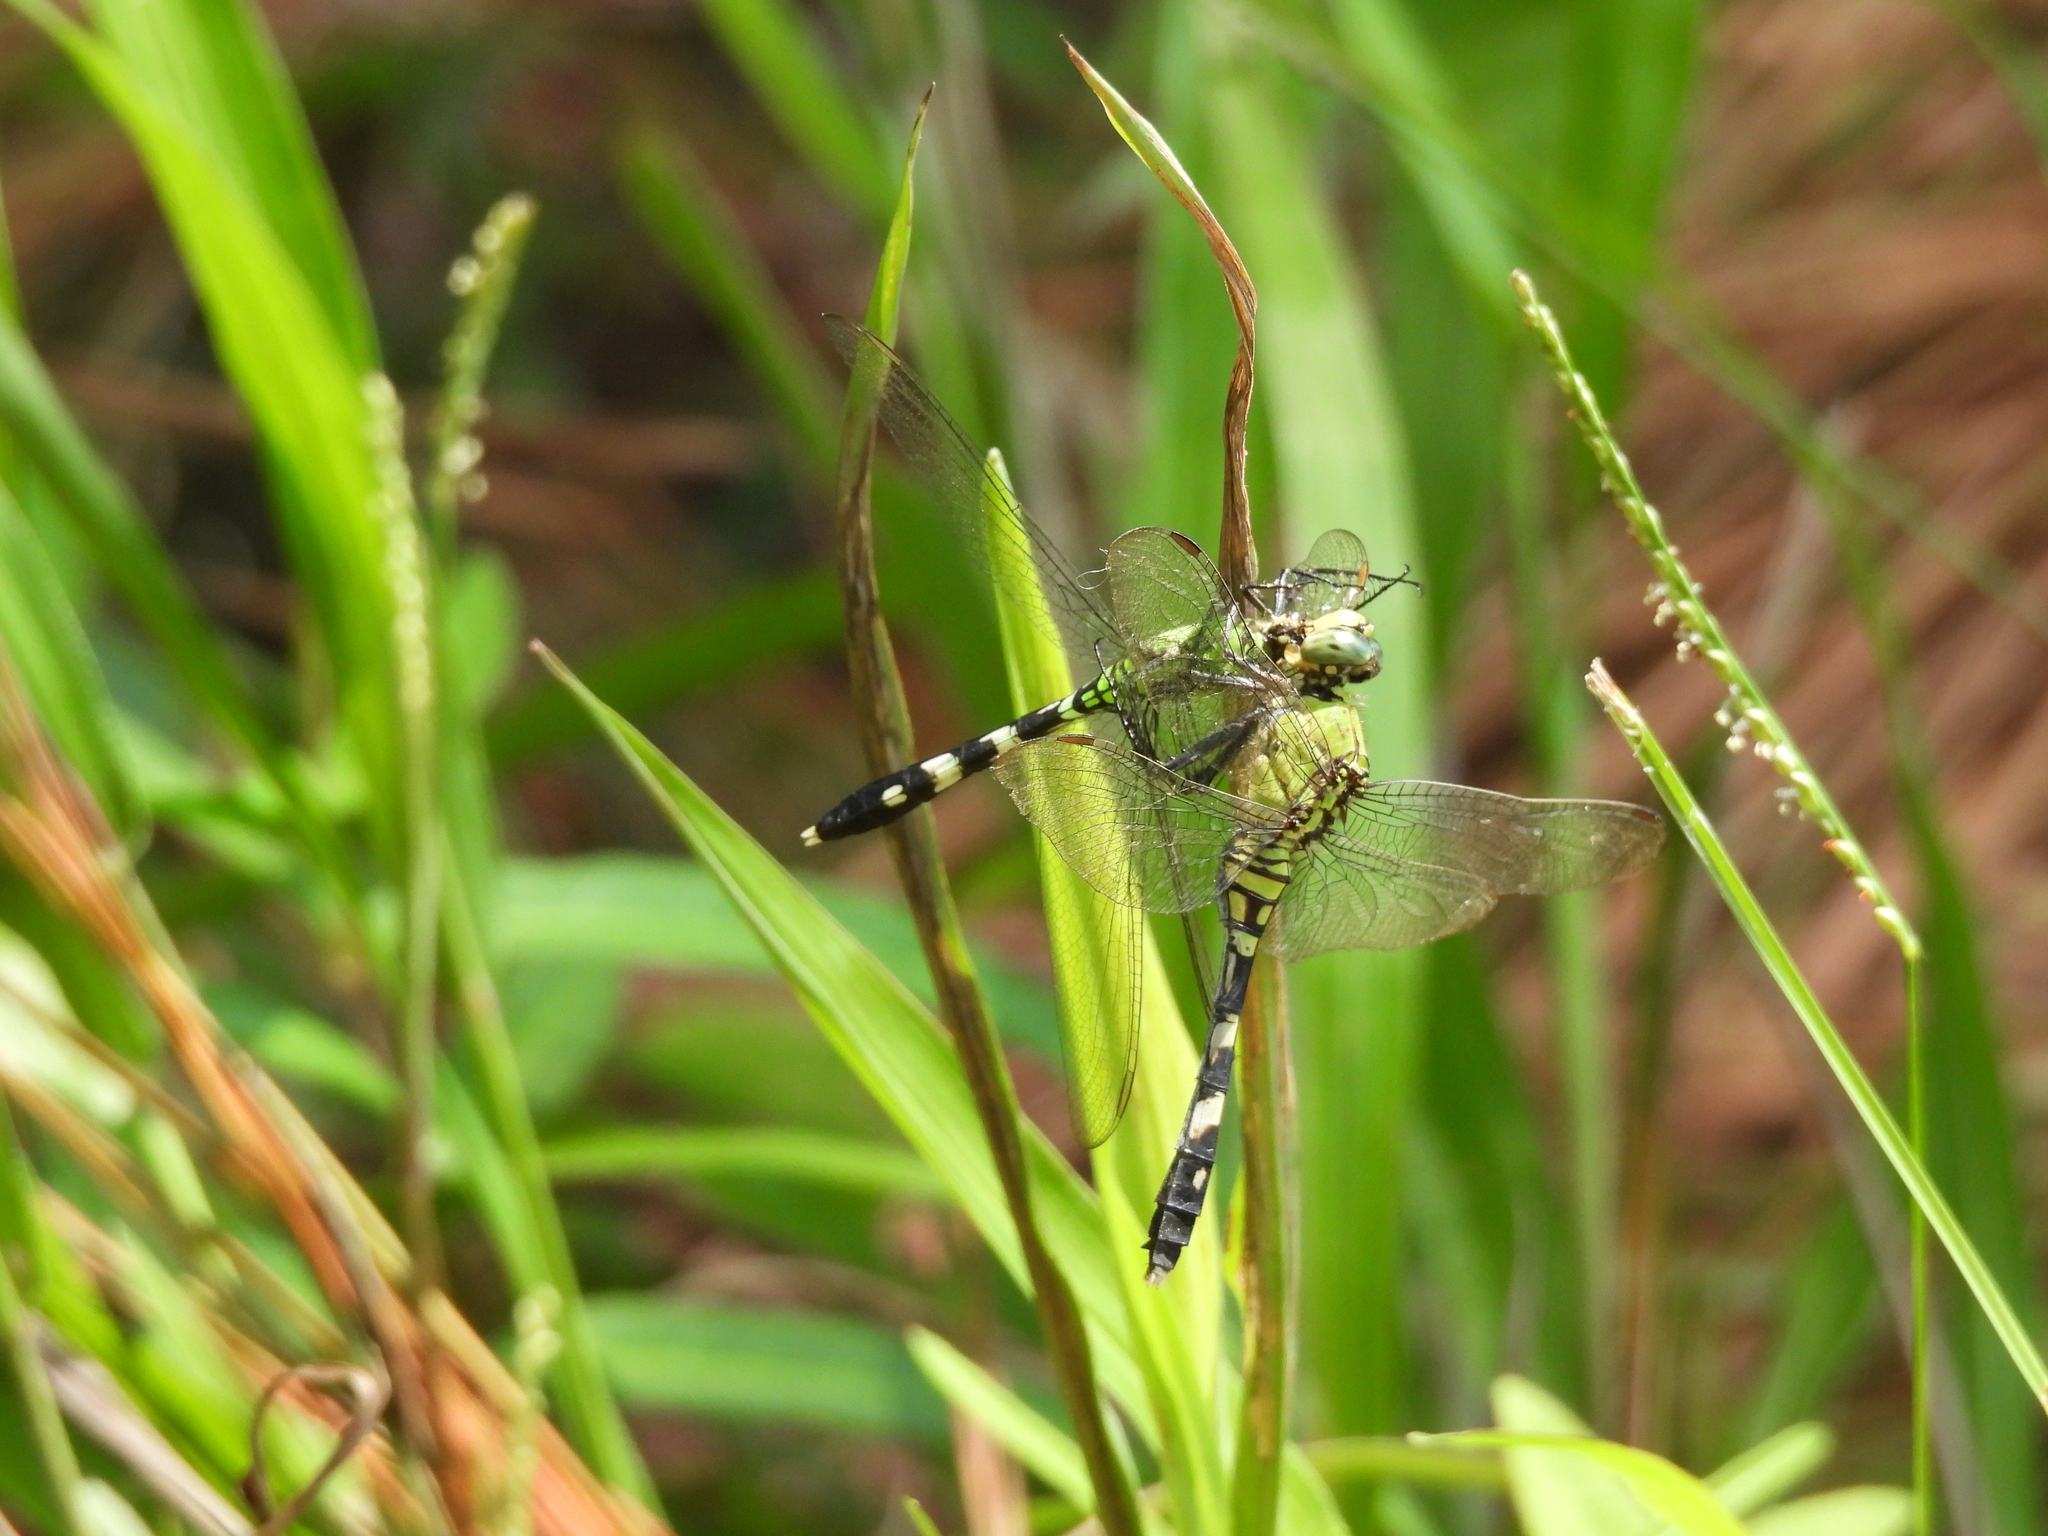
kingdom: Animalia
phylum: Arthropoda
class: Insecta
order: Odonata
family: Libellulidae
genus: Erythemis
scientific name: Erythemis simplicicollis
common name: Eastern pondhawk
